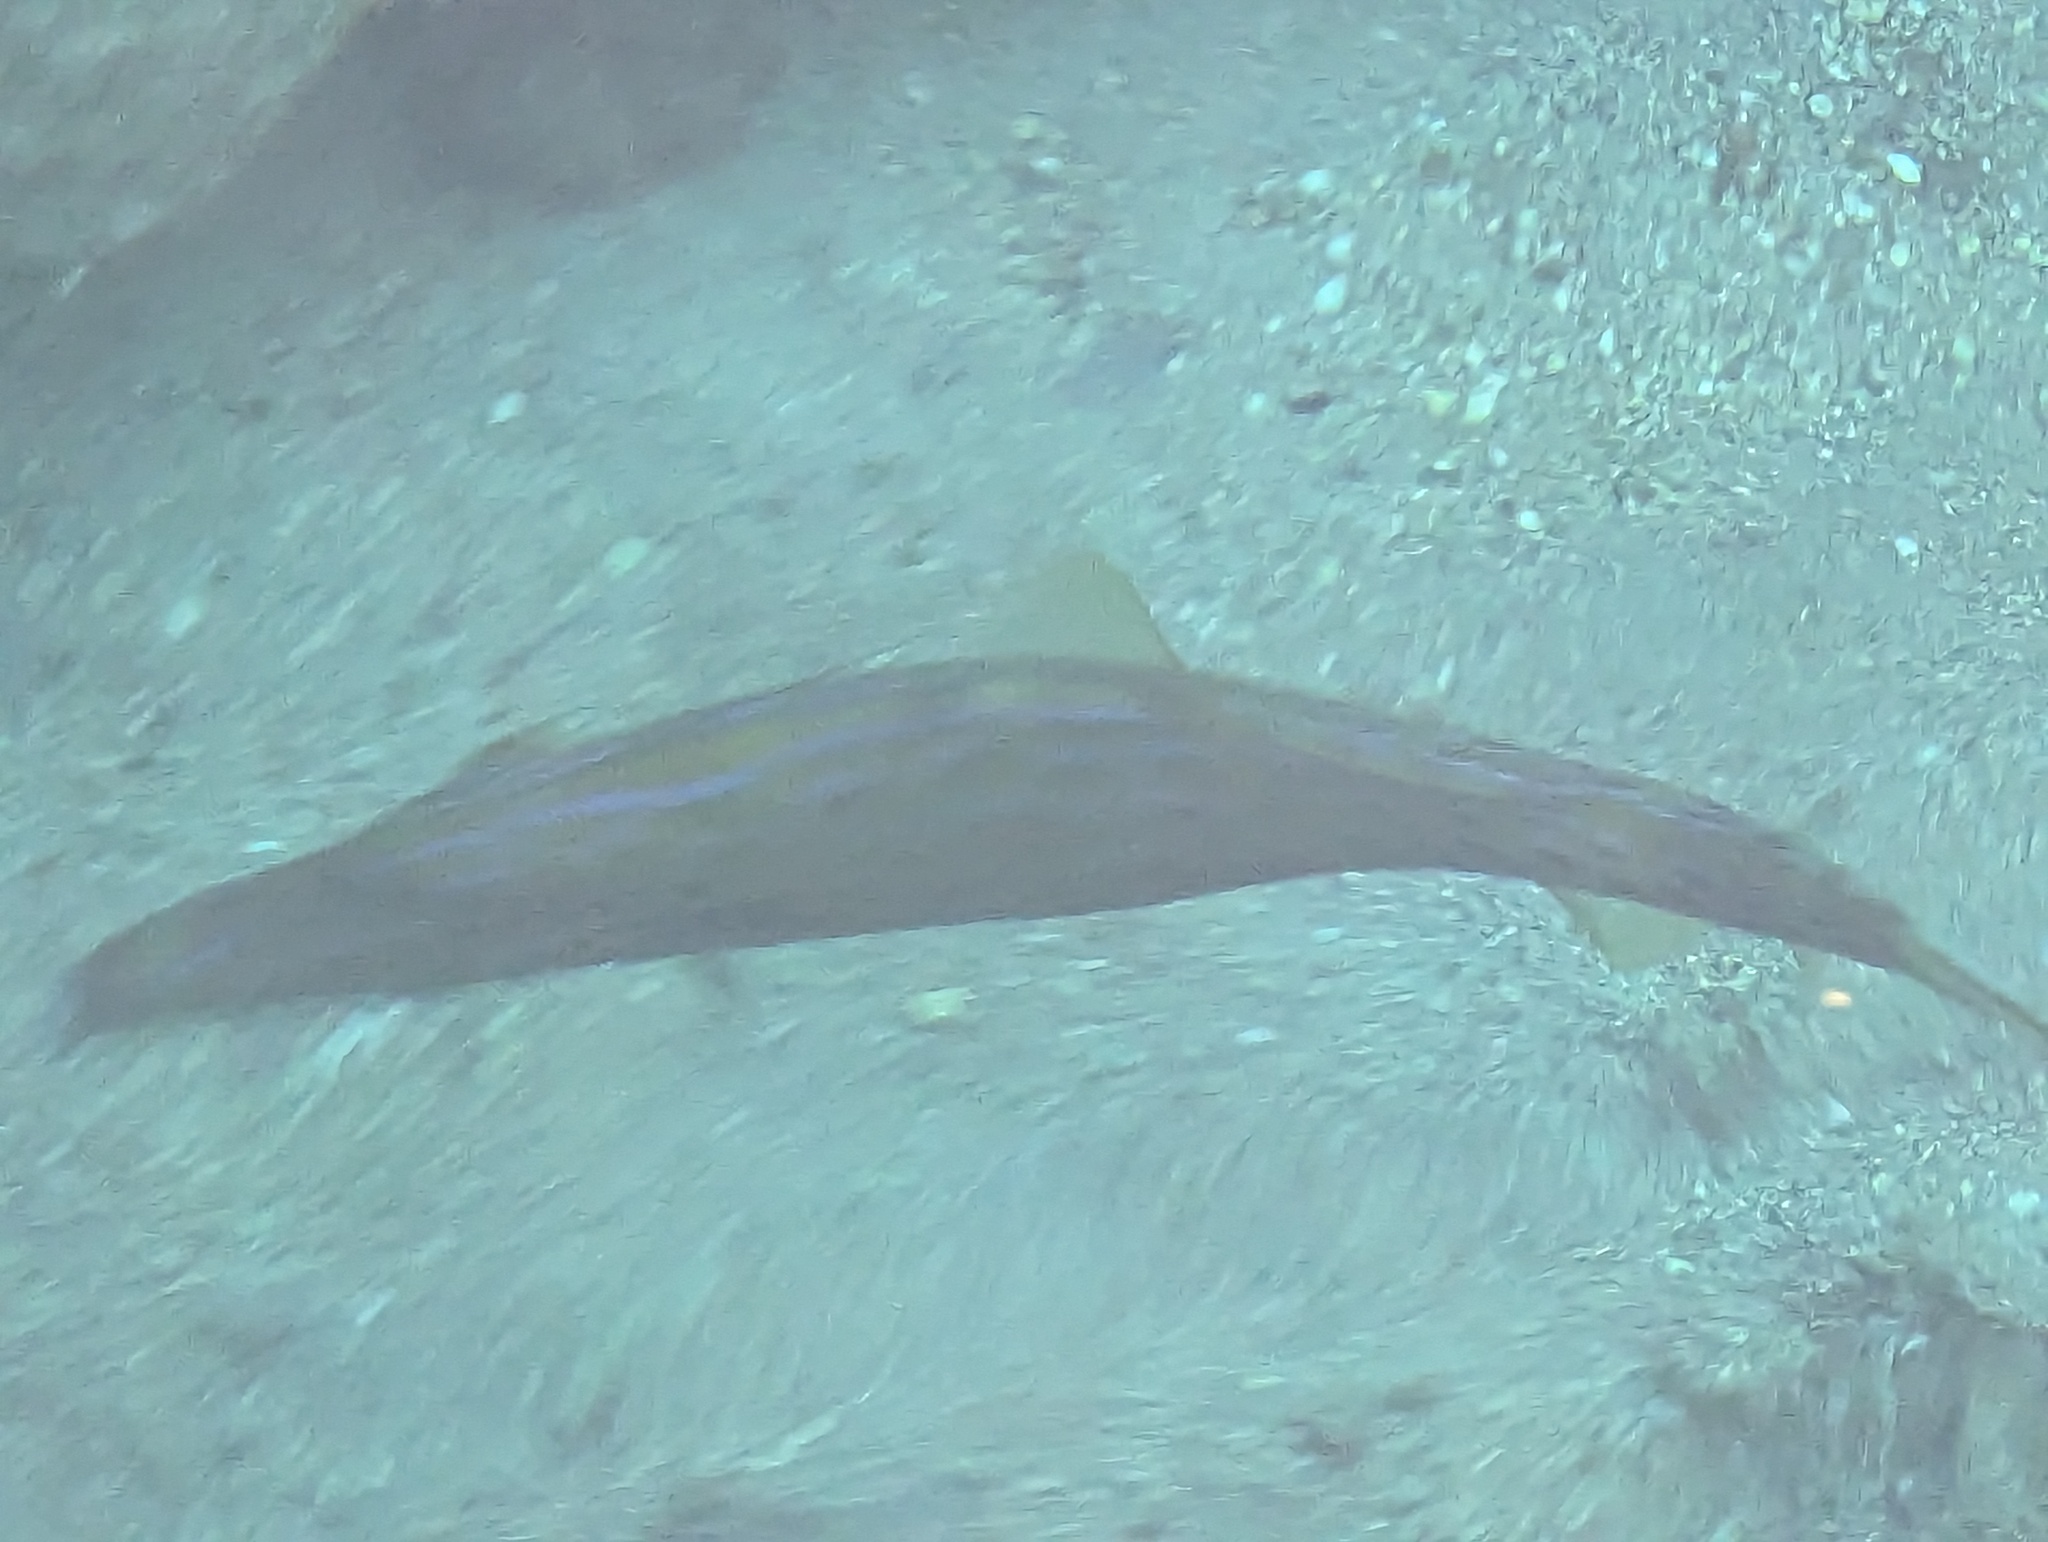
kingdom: Animalia
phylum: Chordata
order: Tetraodontiformes
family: Monacanthidae
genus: Aluterus
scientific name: Aluterus scriptus
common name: Scribbled leatherjacket filefish
